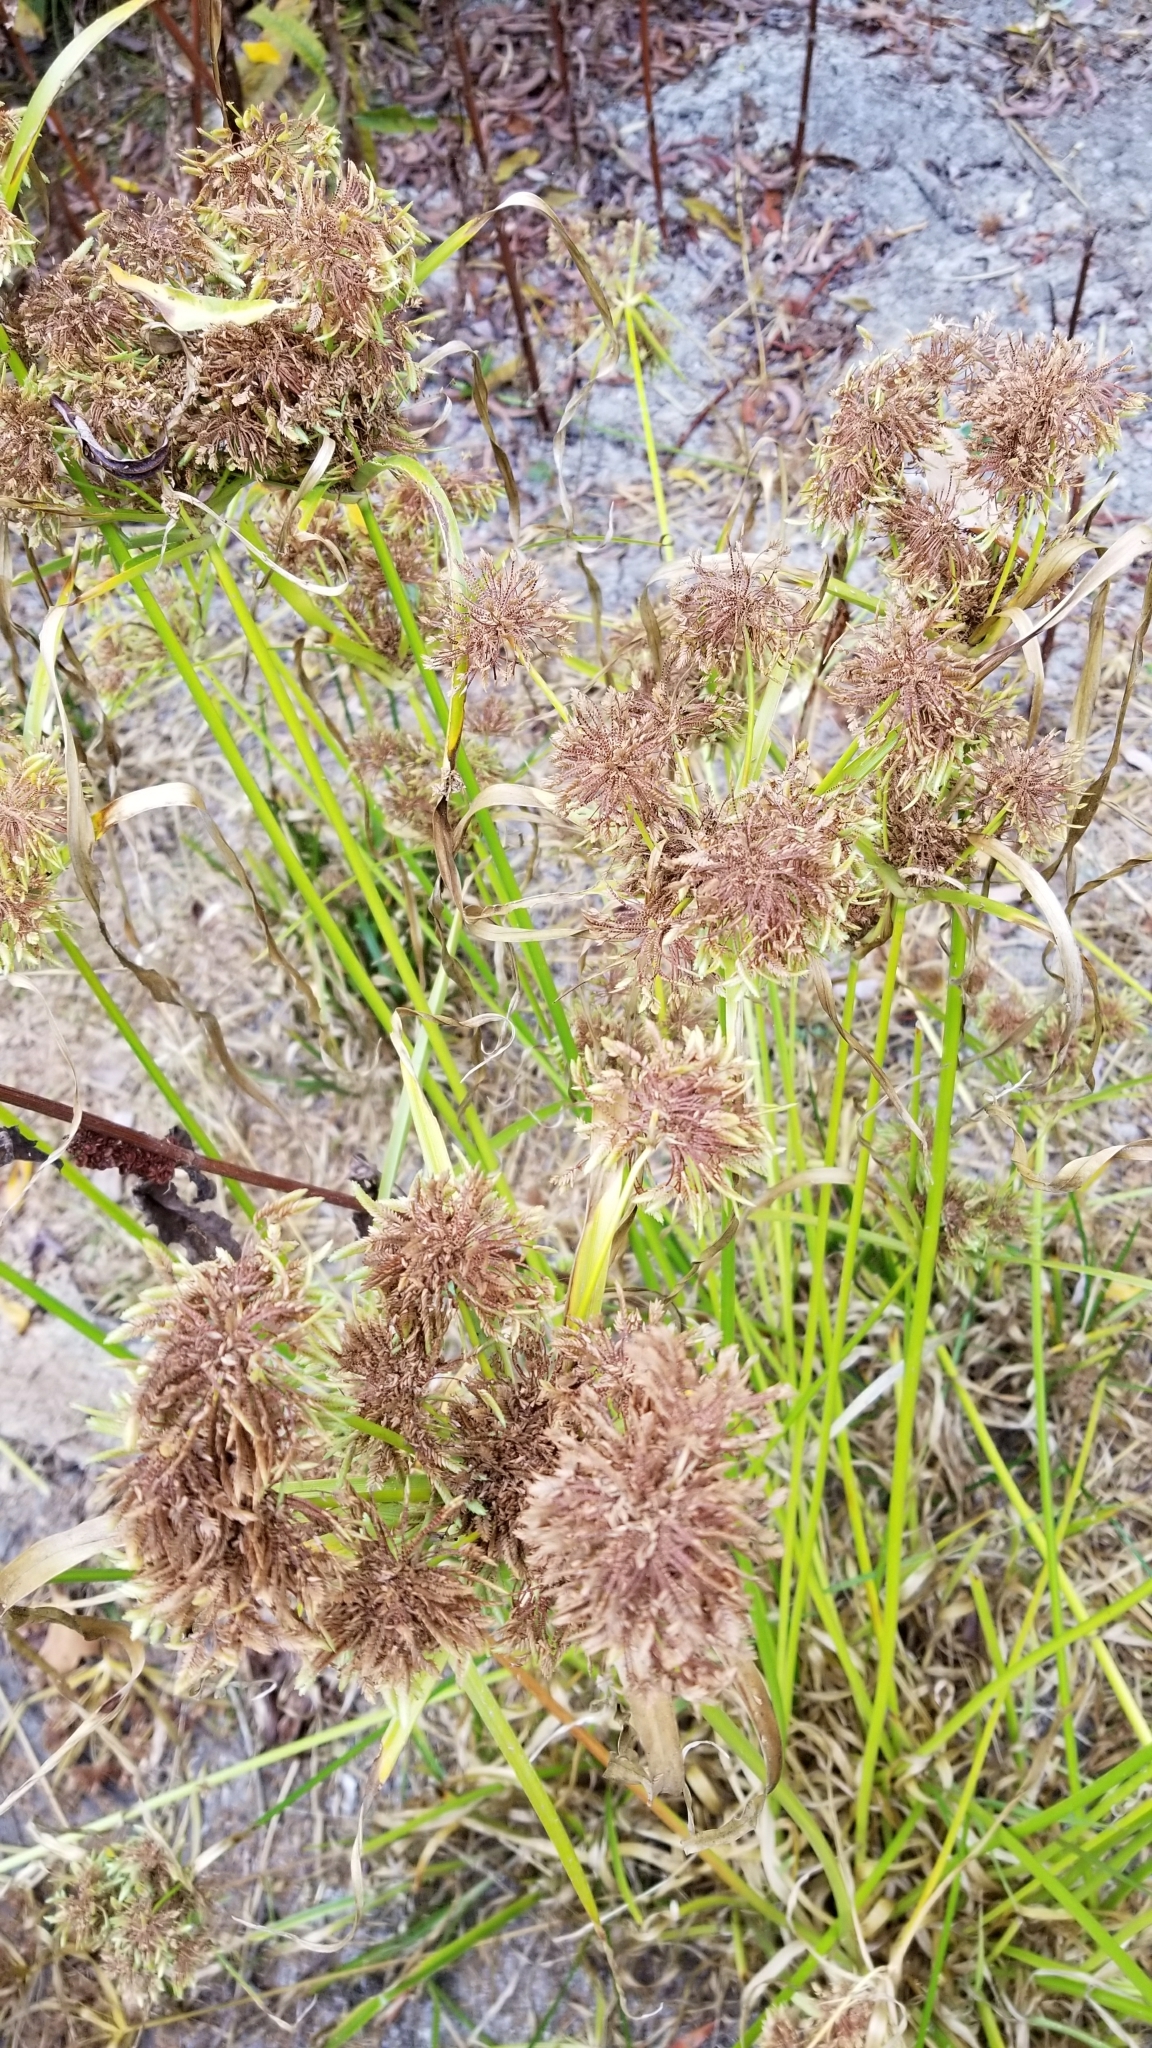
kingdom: Plantae
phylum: Tracheophyta
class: Liliopsida
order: Poales
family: Cyperaceae
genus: Cyperus
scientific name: Cyperus eragrostis
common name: Tall flatsedge
